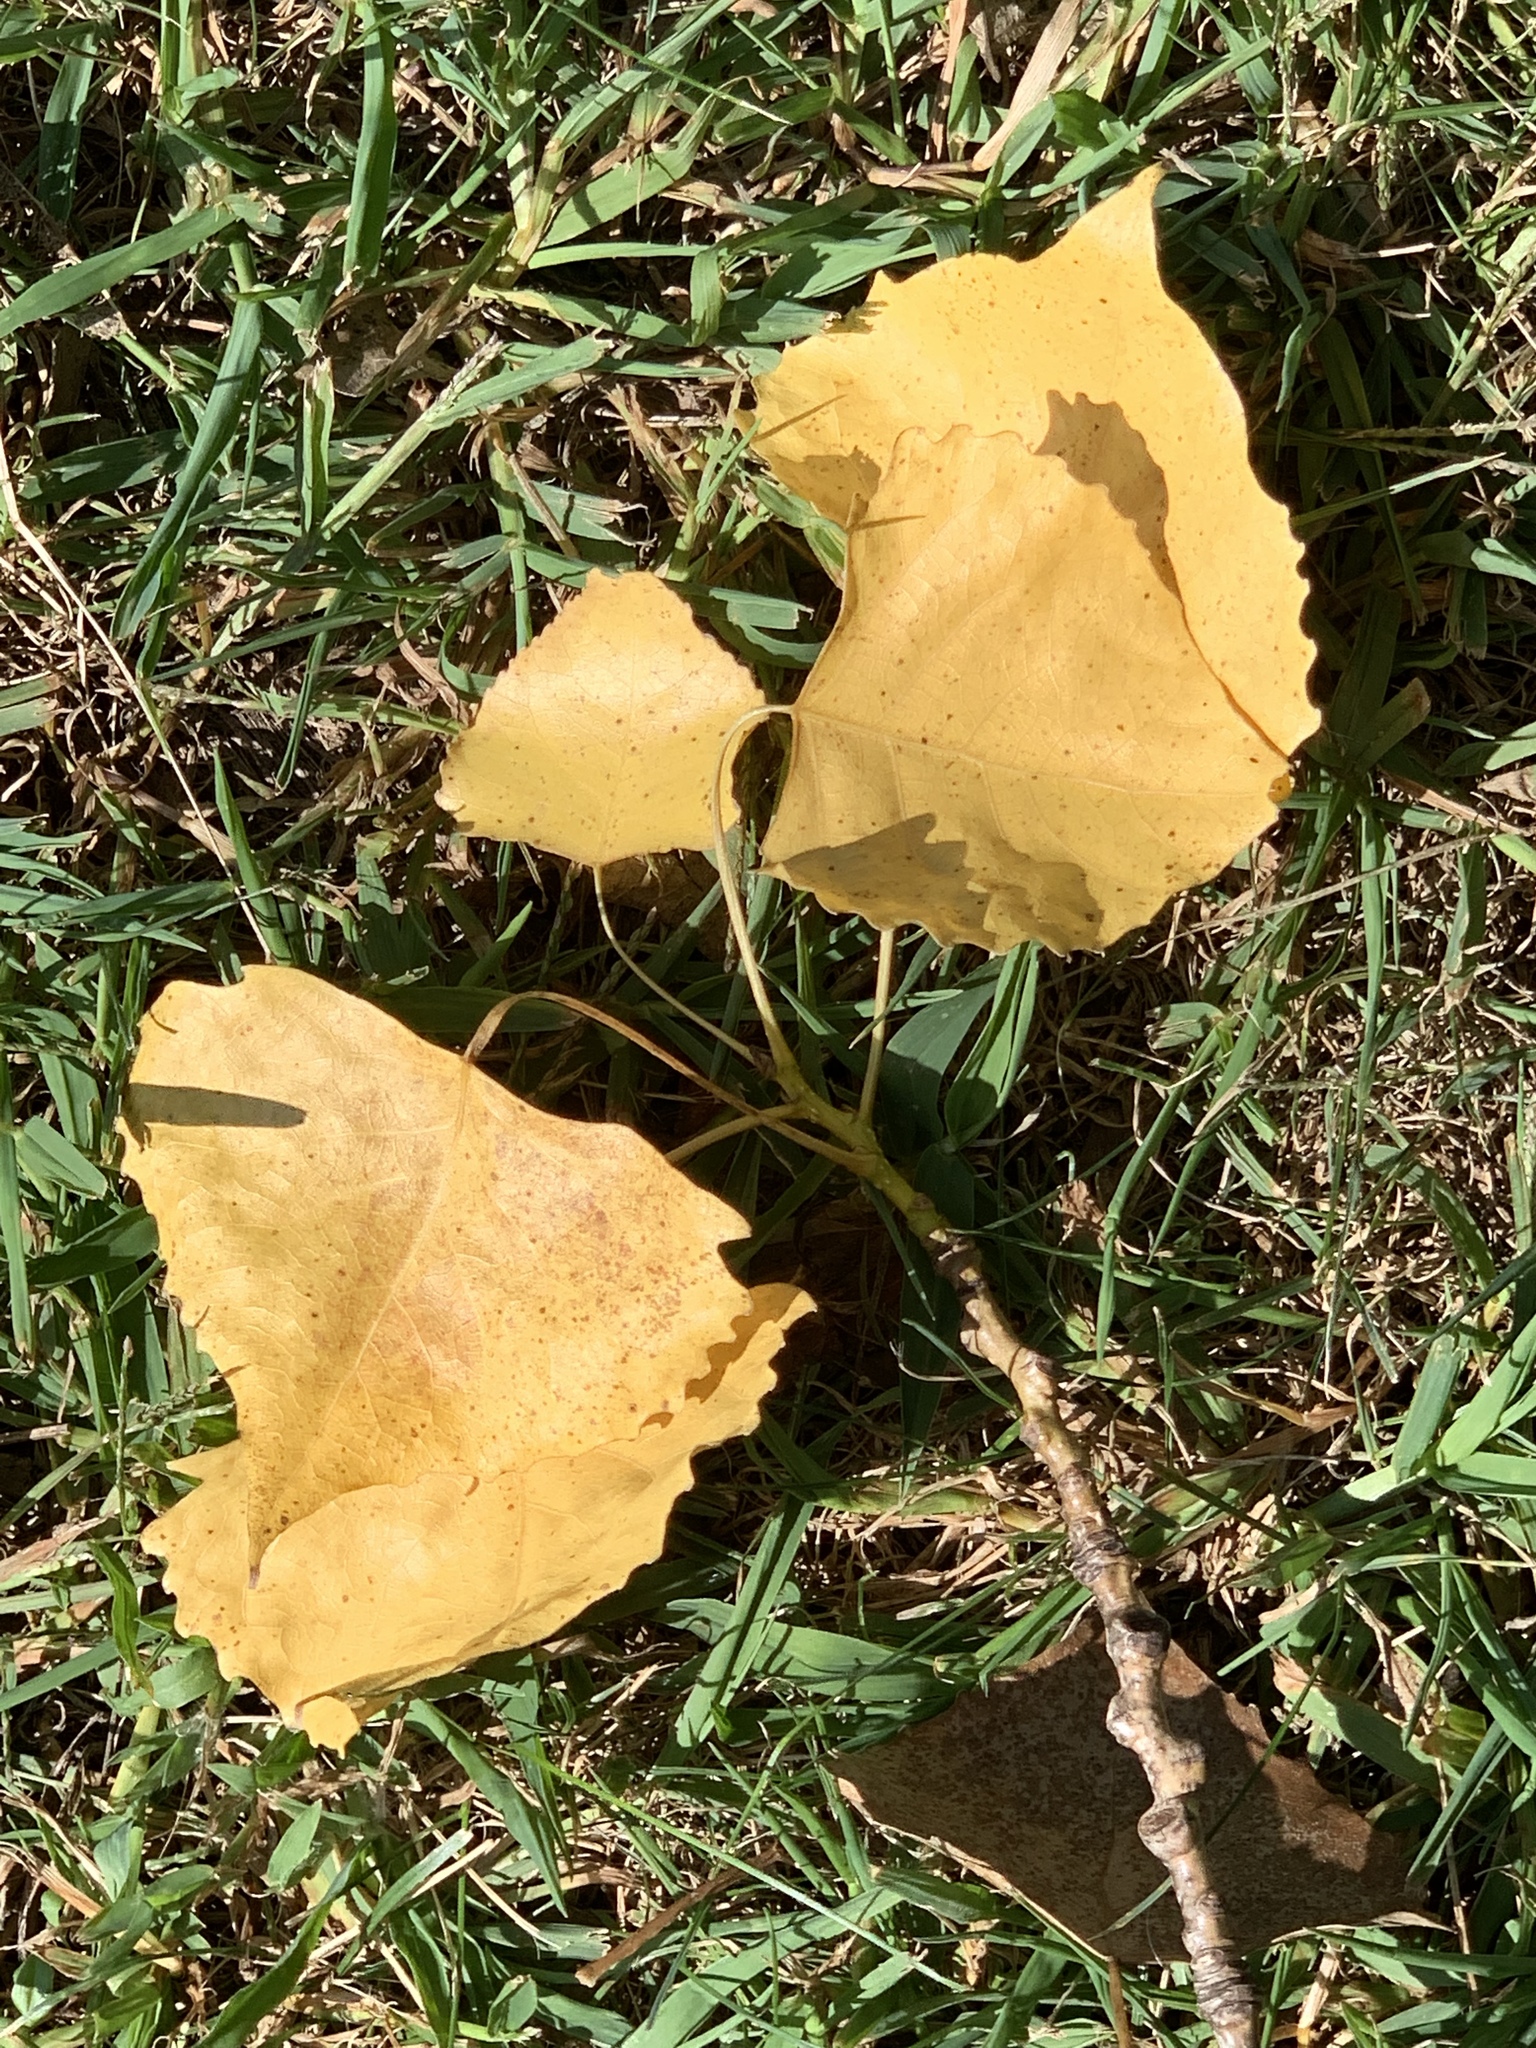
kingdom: Plantae
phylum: Tracheophyta
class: Magnoliopsida
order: Malpighiales
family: Salicaceae
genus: Populus
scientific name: Populus deltoides
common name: Eastern cottonwood
